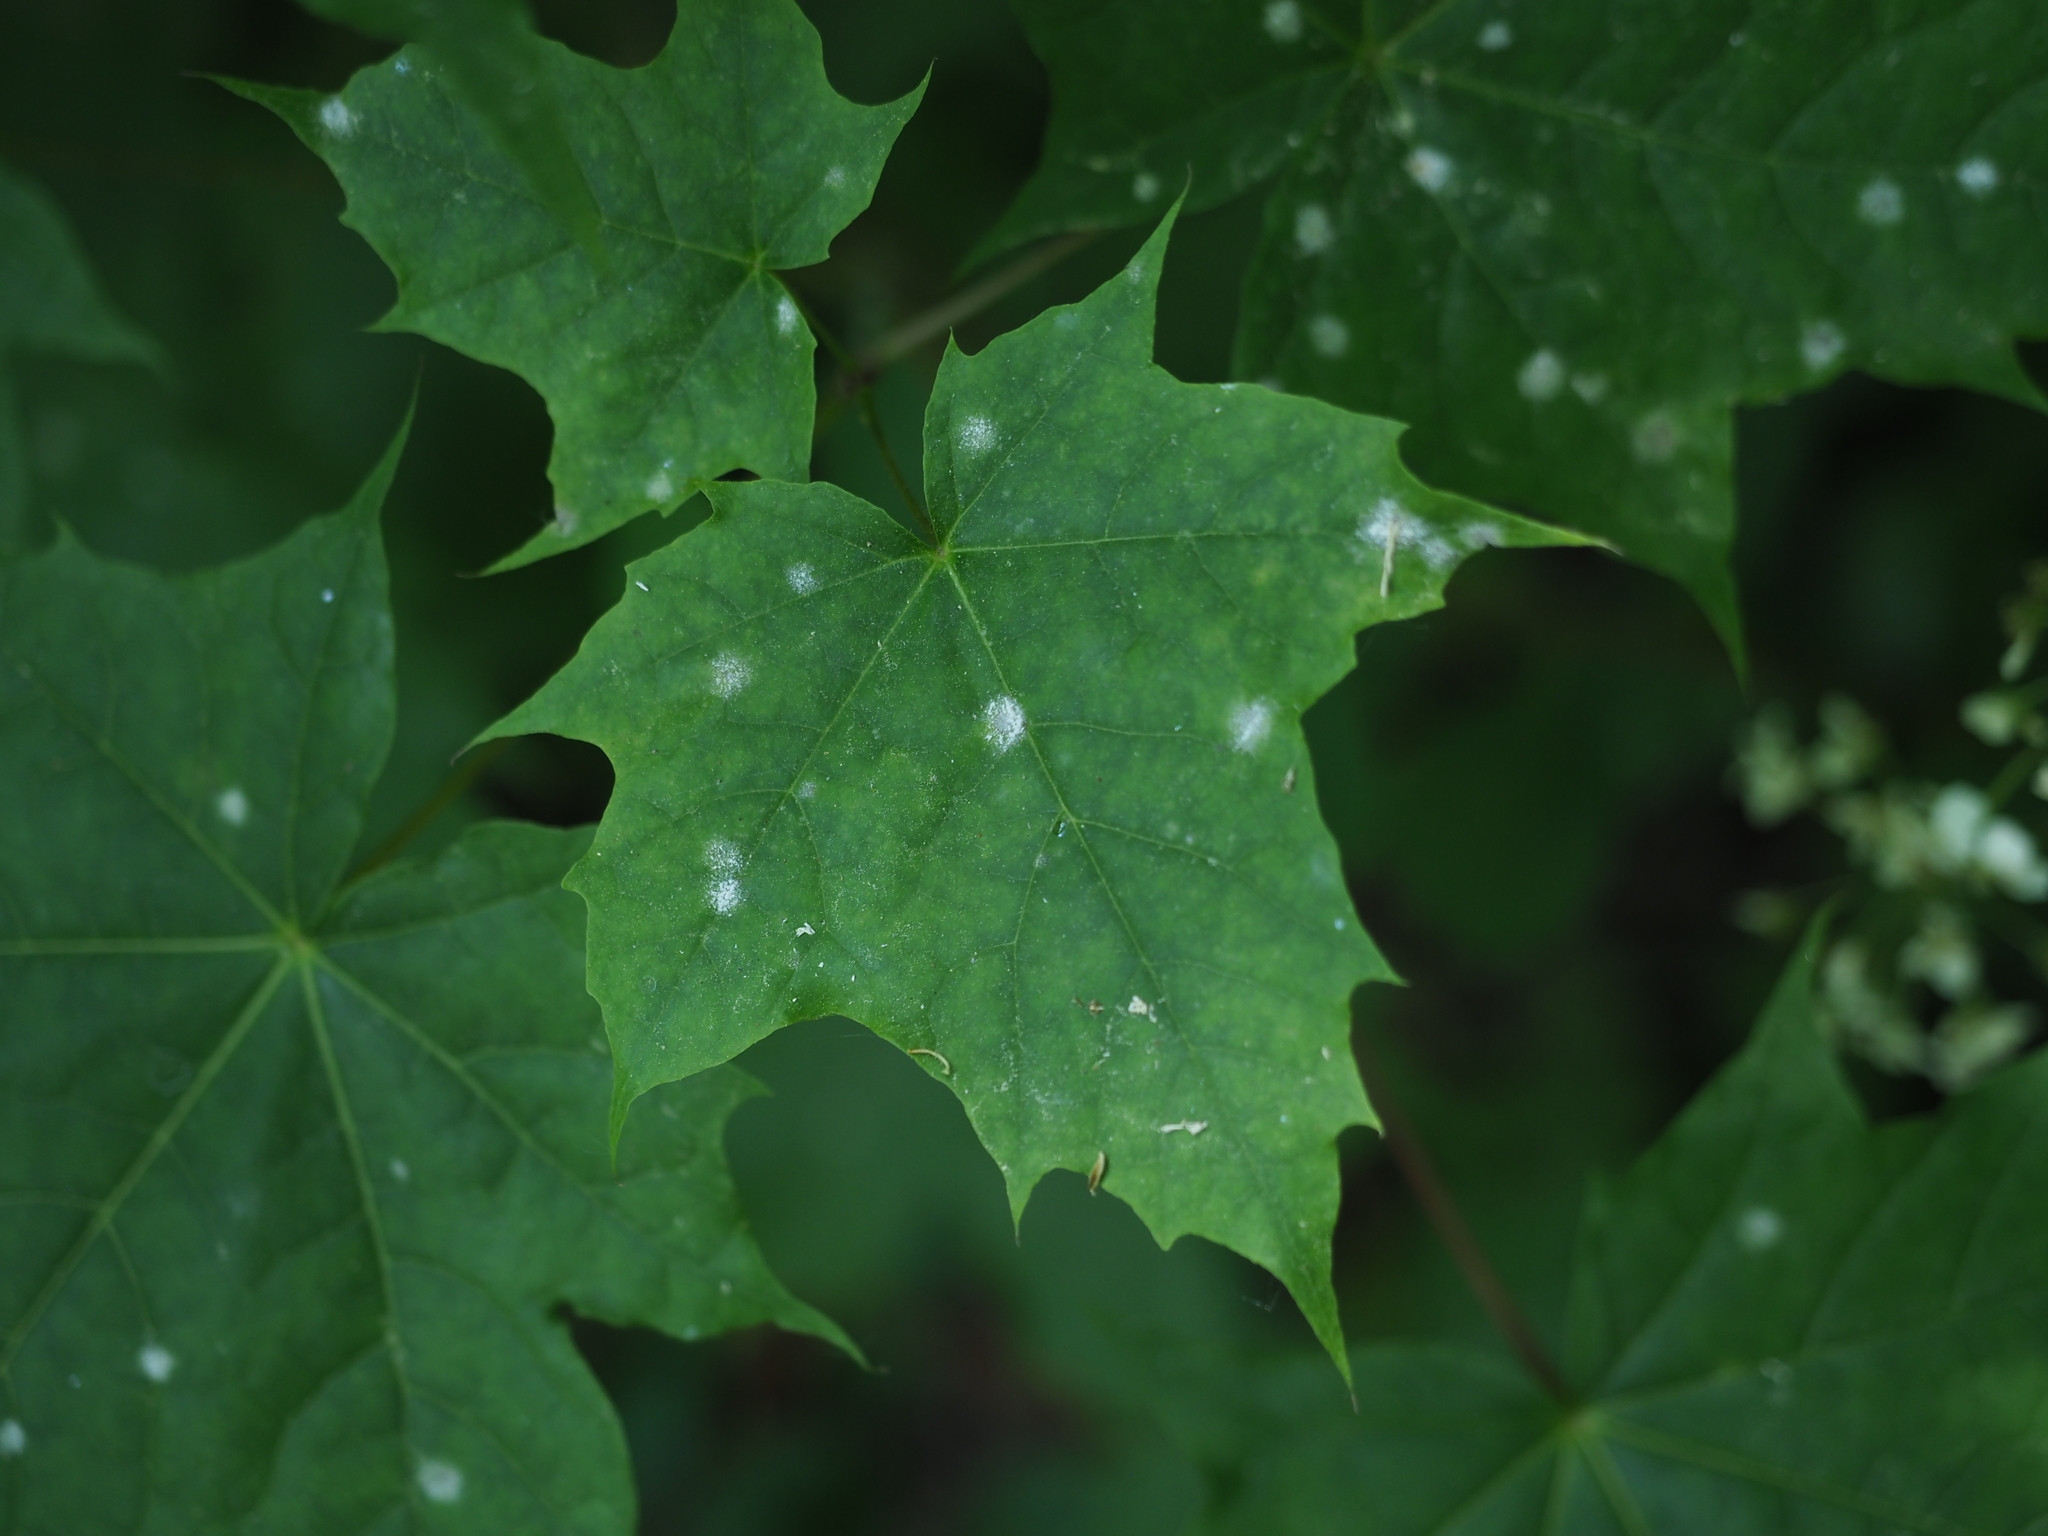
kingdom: Plantae
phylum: Tracheophyta
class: Magnoliopsida
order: Sapindales
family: Sapindaceae
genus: Acer
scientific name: Acer platanoides
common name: Norway maple
